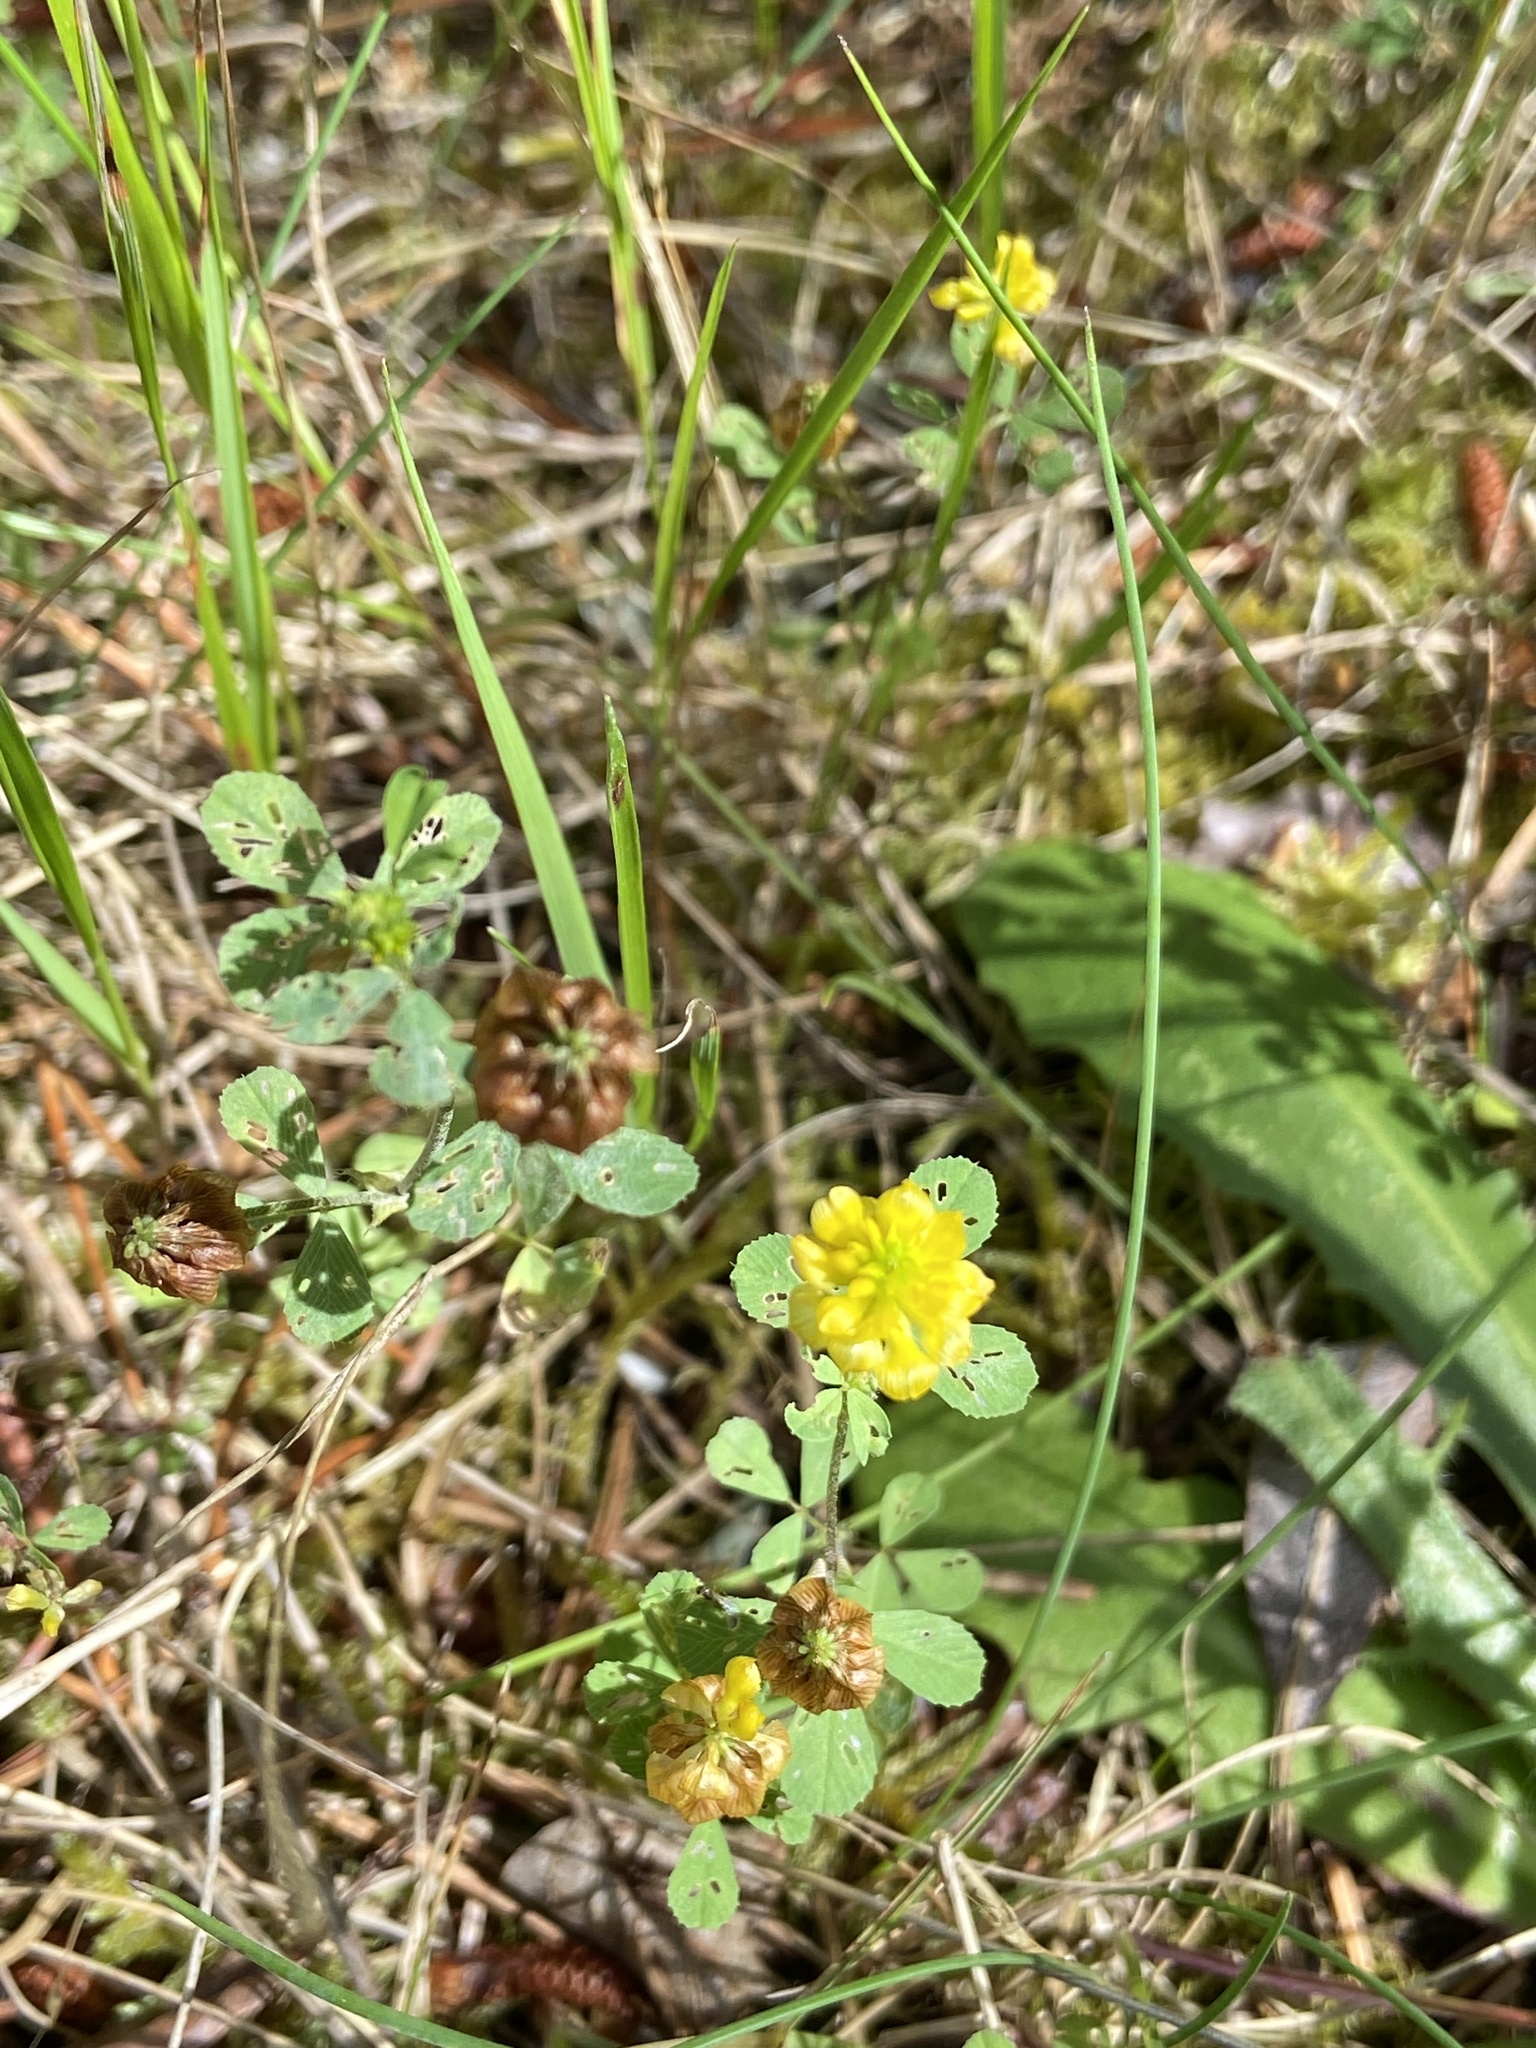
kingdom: Plantae
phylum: Tracheophyta
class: Magnoliopsida
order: Fabales
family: Fabaceae
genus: Trifolium
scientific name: Trifolium campestre
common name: Field clover
